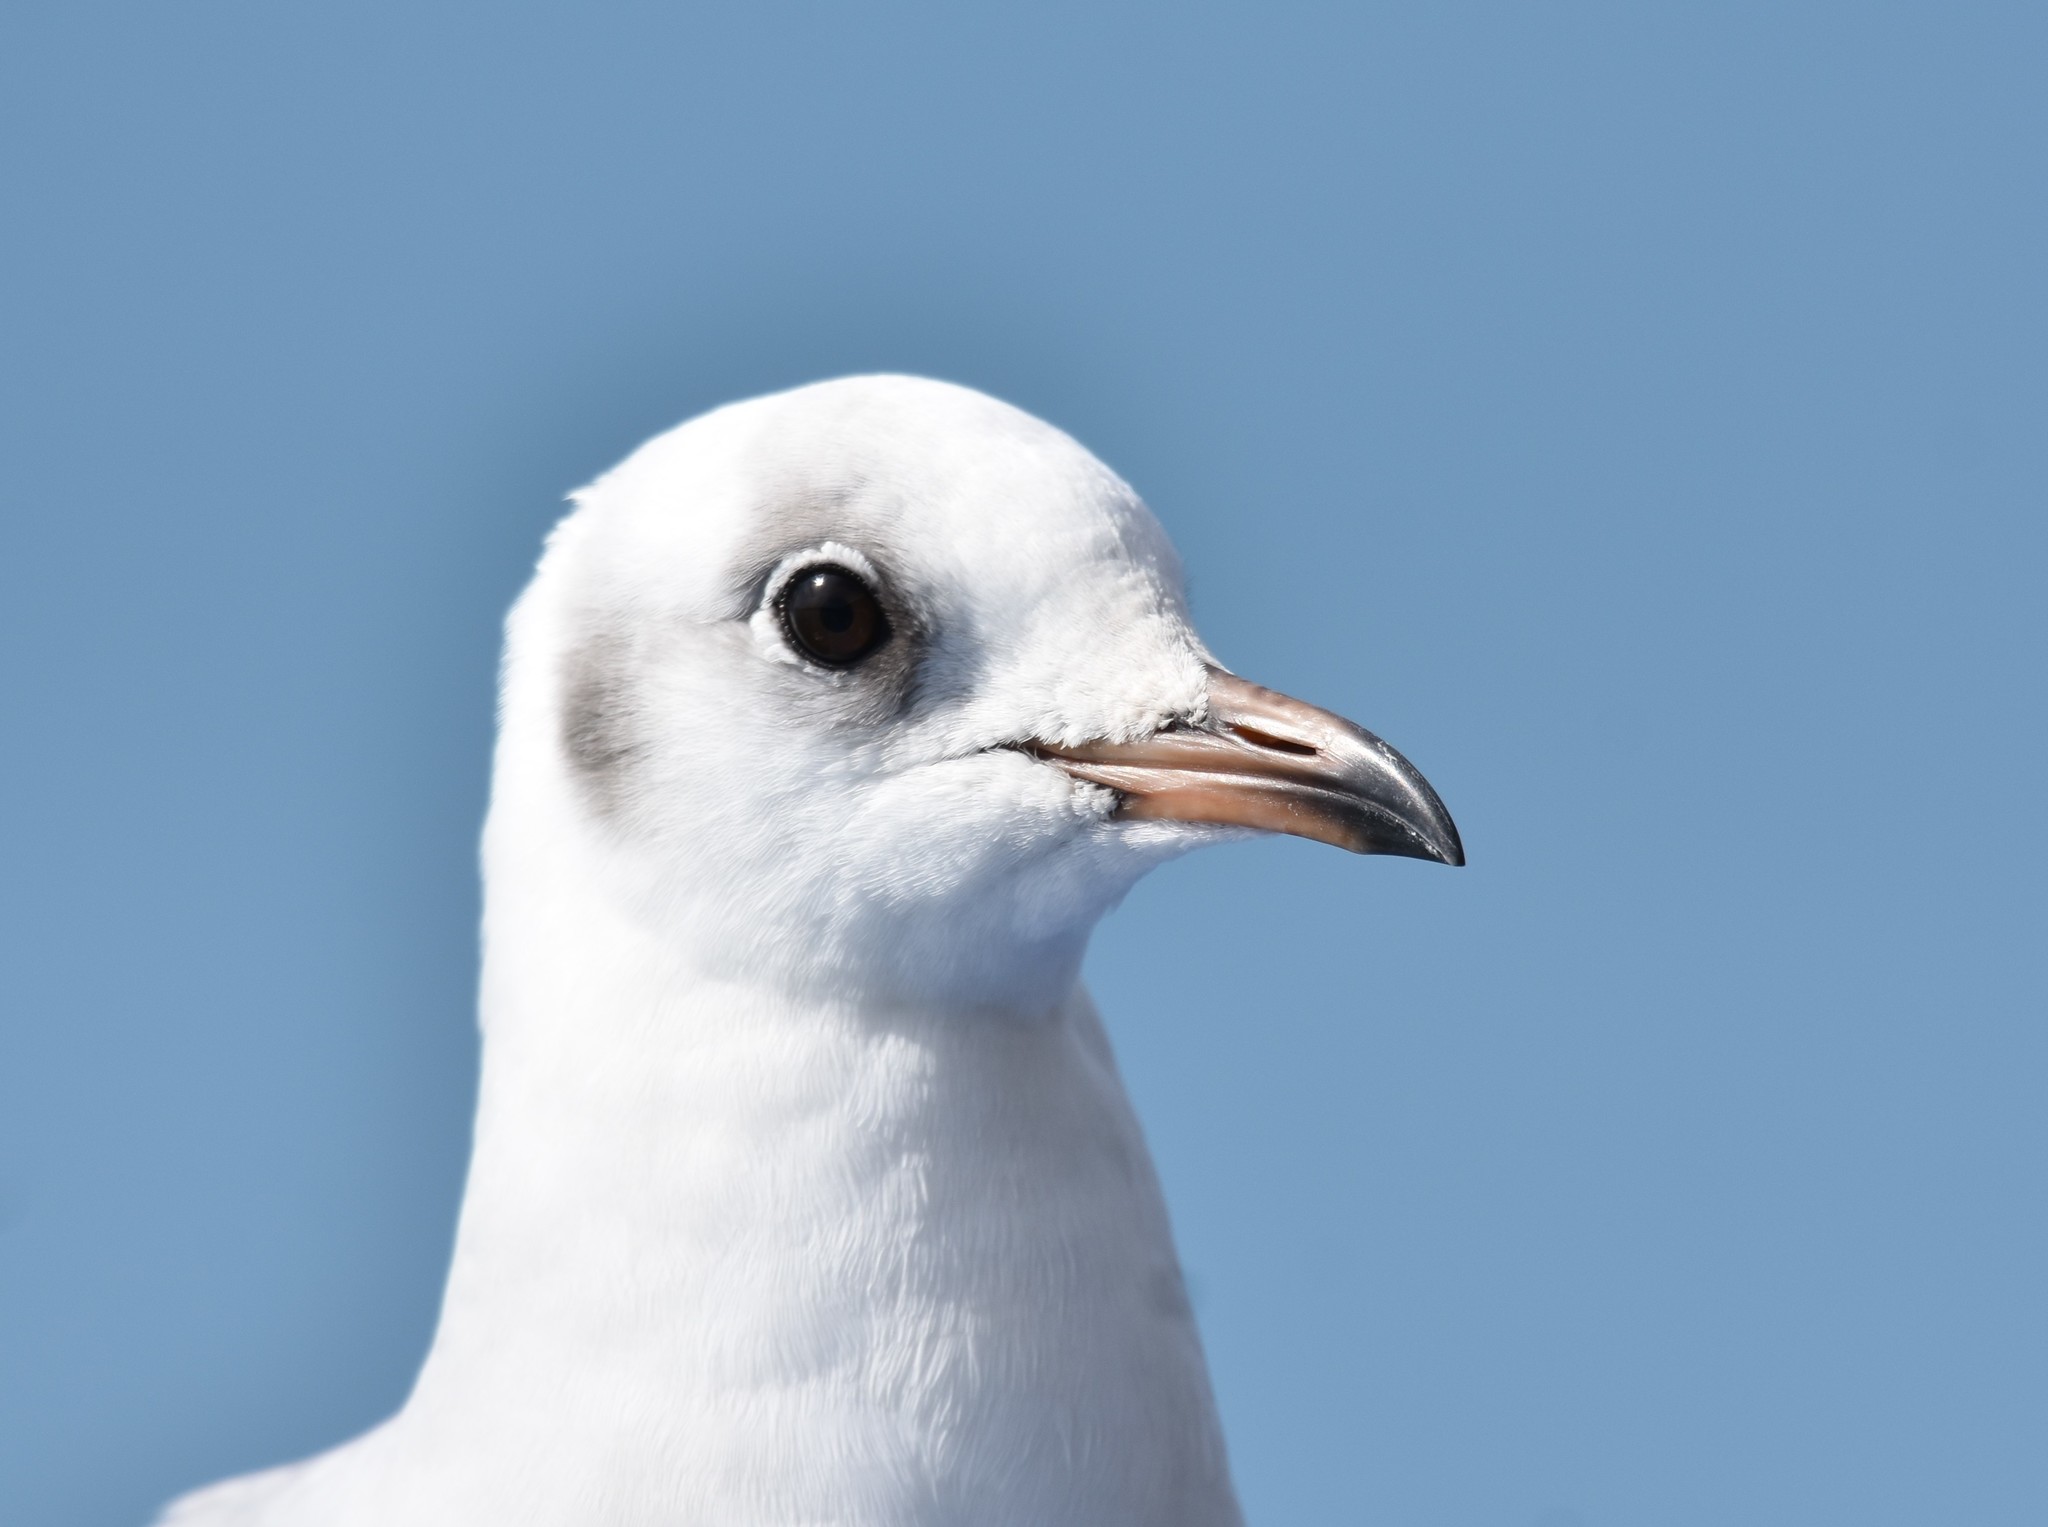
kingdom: Animalia
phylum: Chordata
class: Aves
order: Charadriiformes
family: Laridae
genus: Chroicocephalus
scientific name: Chroicocephalus hartlaubii
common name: Hartlaub's gull
